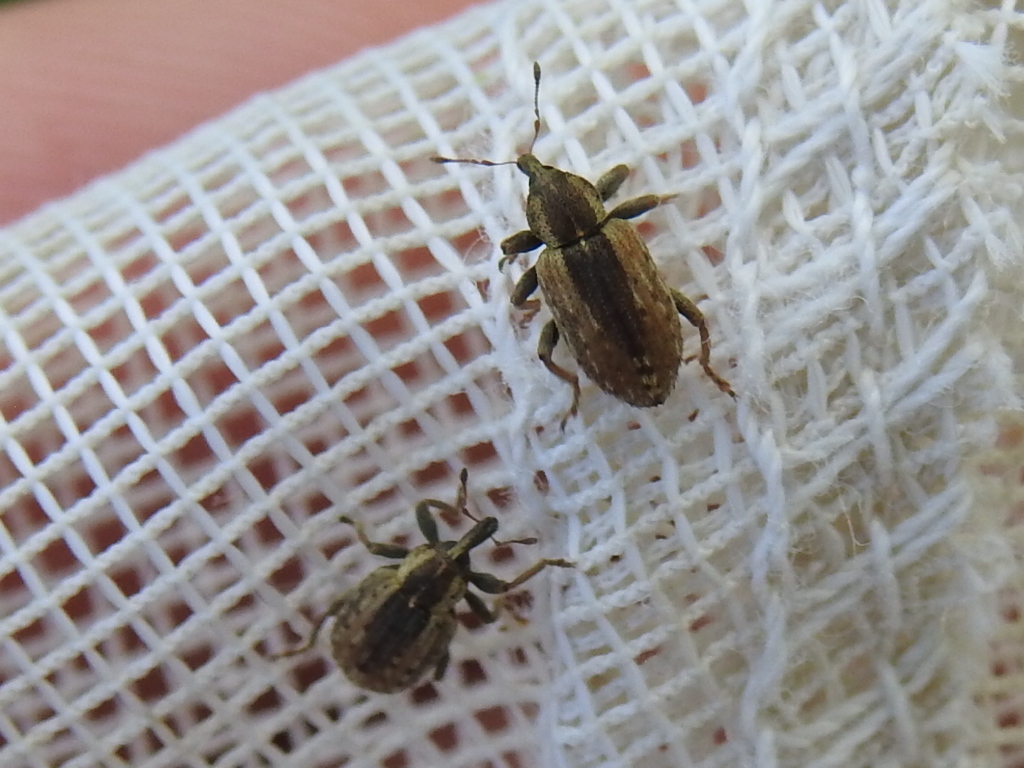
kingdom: Animalia
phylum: Arthropoda
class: Insecta
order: Coleoptera
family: Curculionidae
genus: Hypera
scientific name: Hypera postica
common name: Weevil
